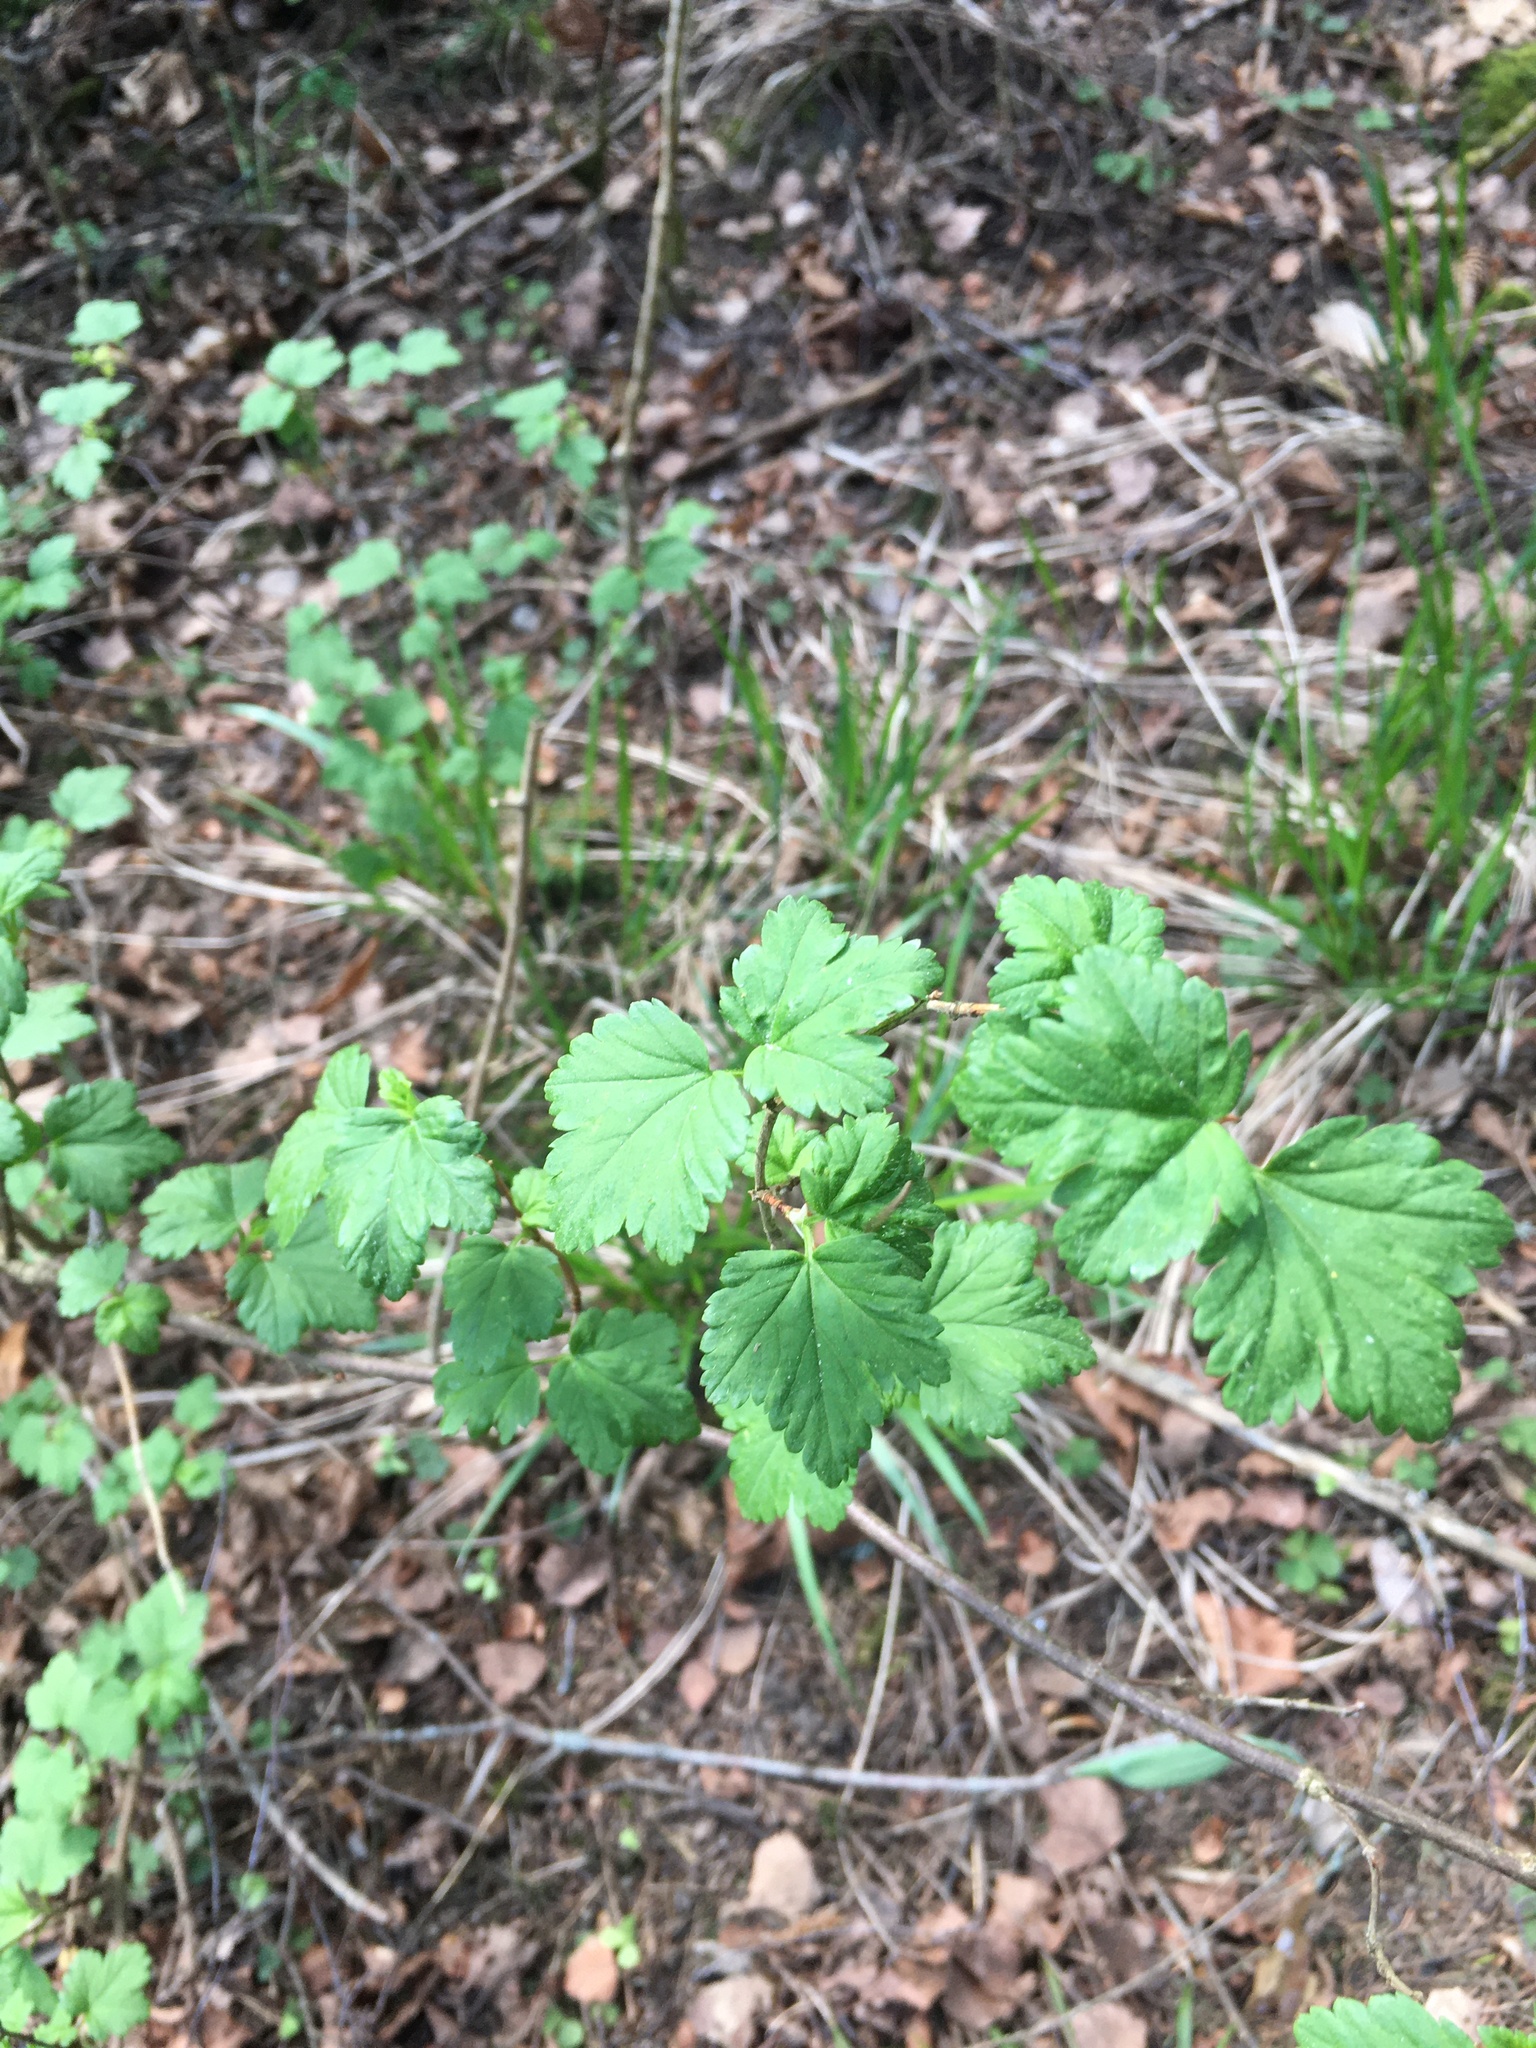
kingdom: Plantae
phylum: Tracheophyta
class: Magnoliopsida
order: Saxifragales
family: Grossulariaceae
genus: Ribes
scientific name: Ribes alpinum
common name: Alpine currant
